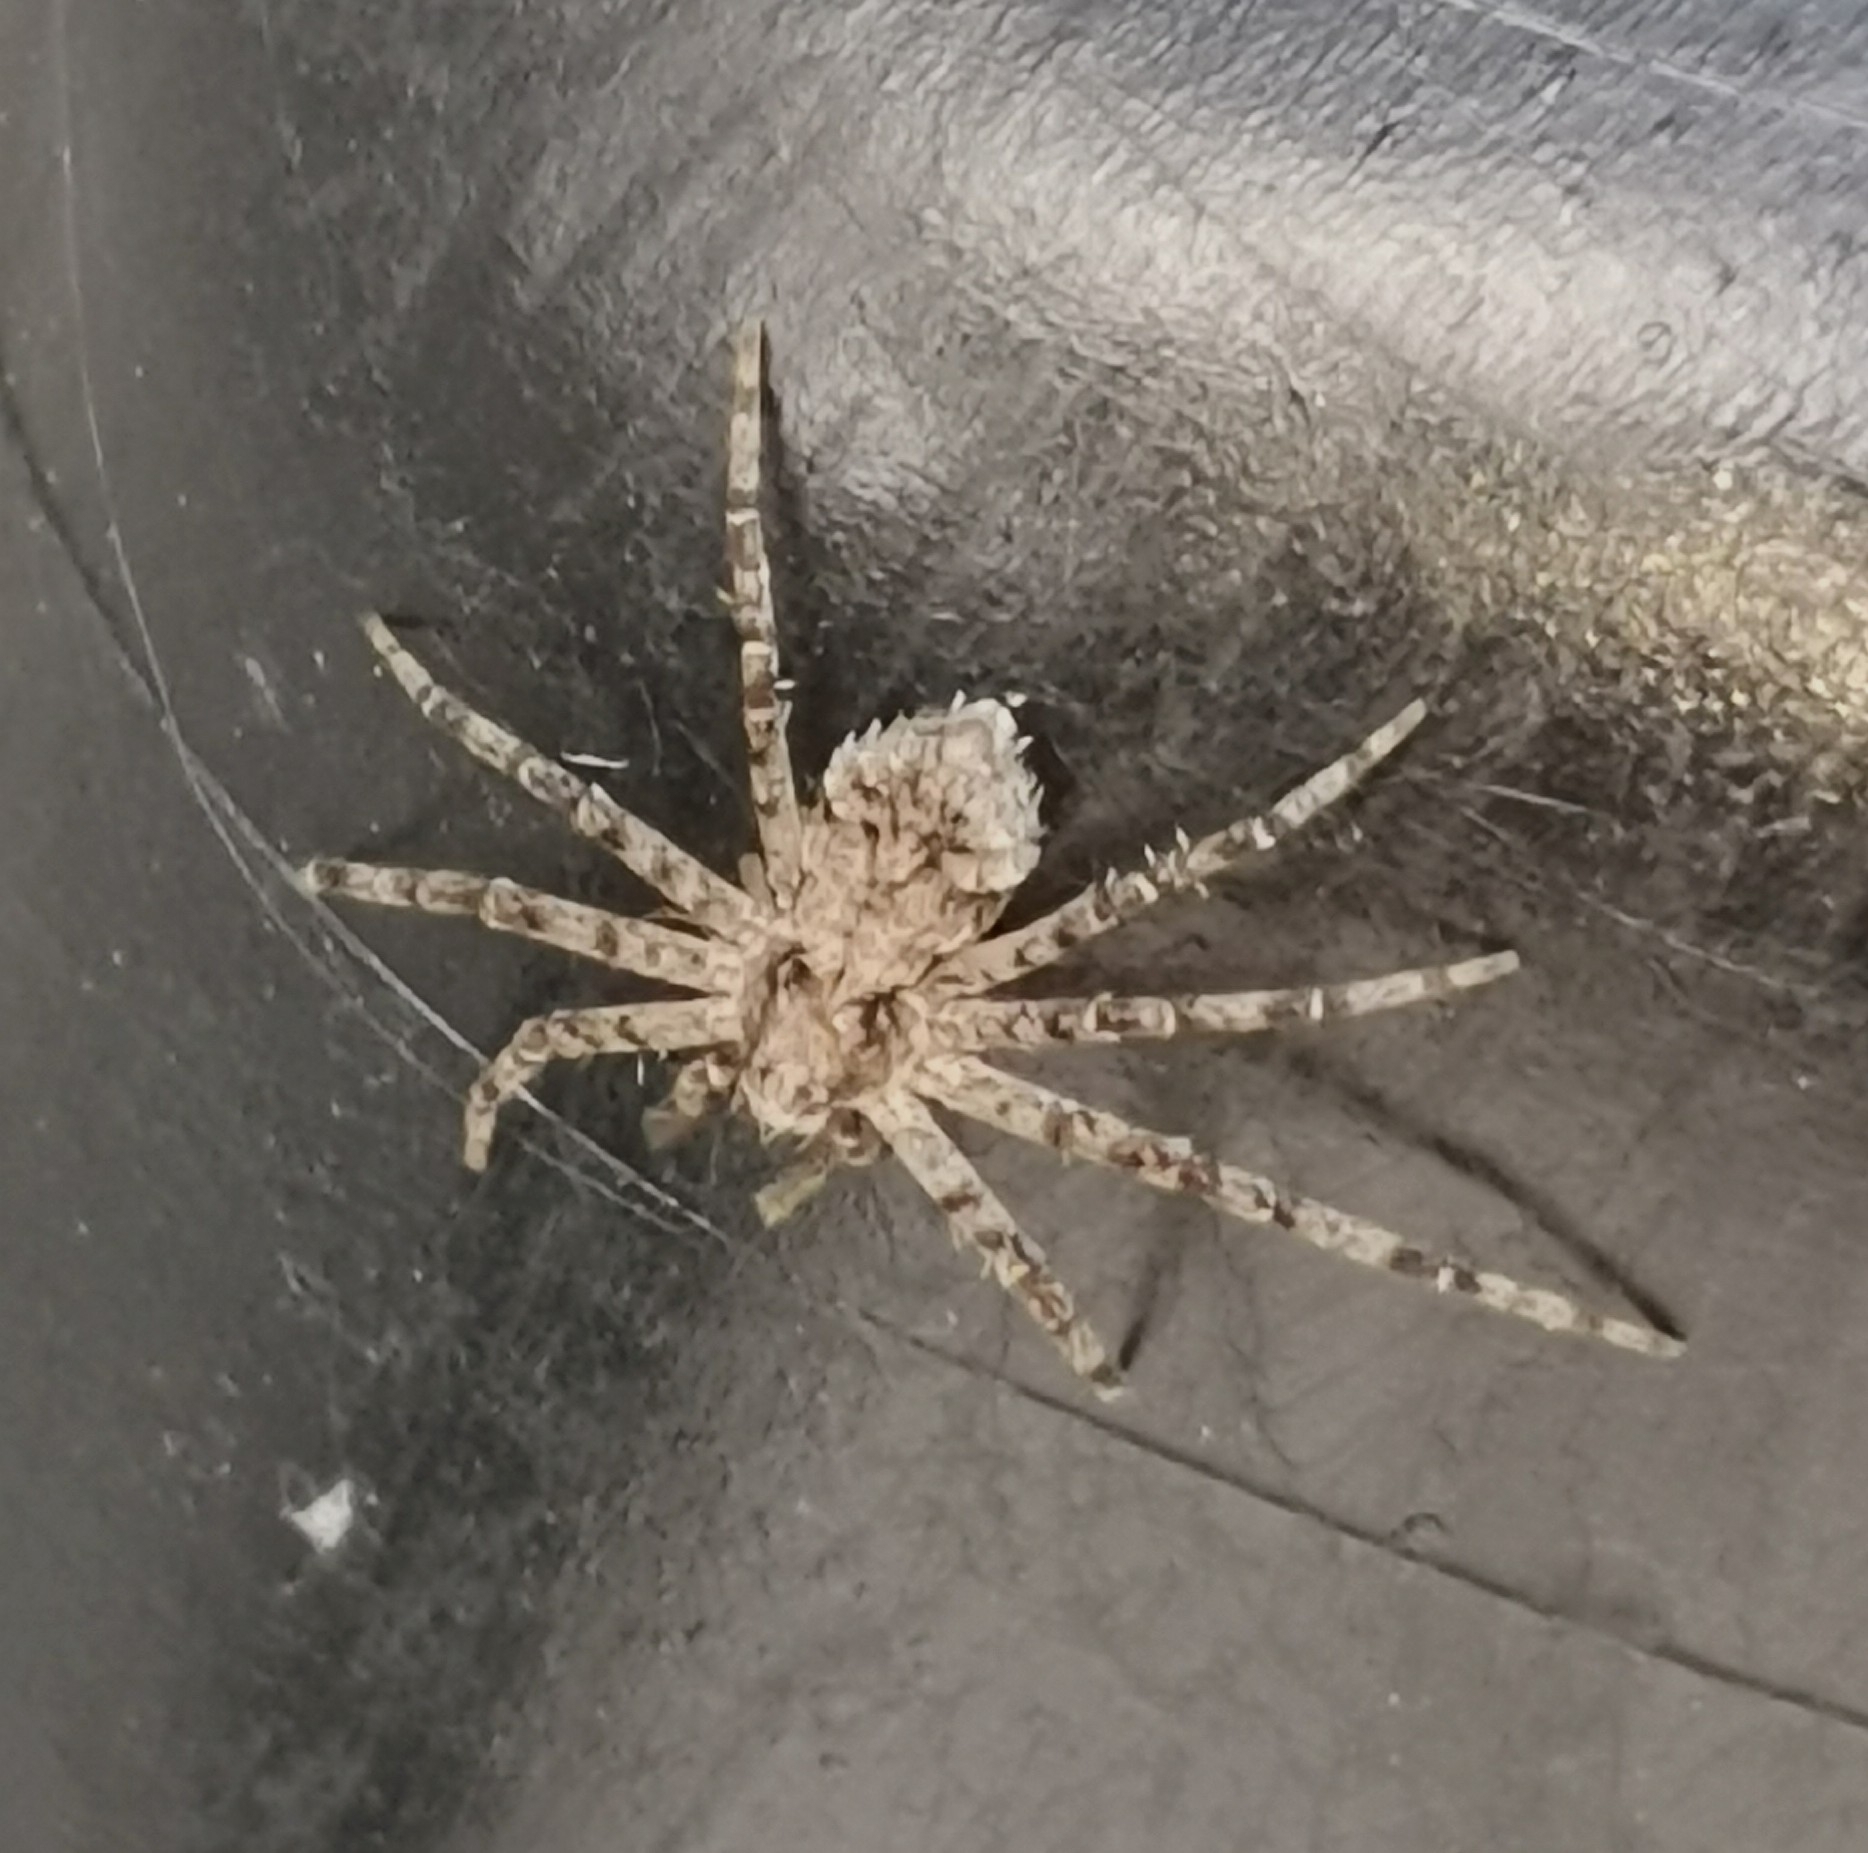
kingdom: Animalia
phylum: Arthropoda
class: Arachnida
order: Araneae
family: Philodromidae
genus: Philodromus
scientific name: Philodromus margaritatus
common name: Lichen running-spider
